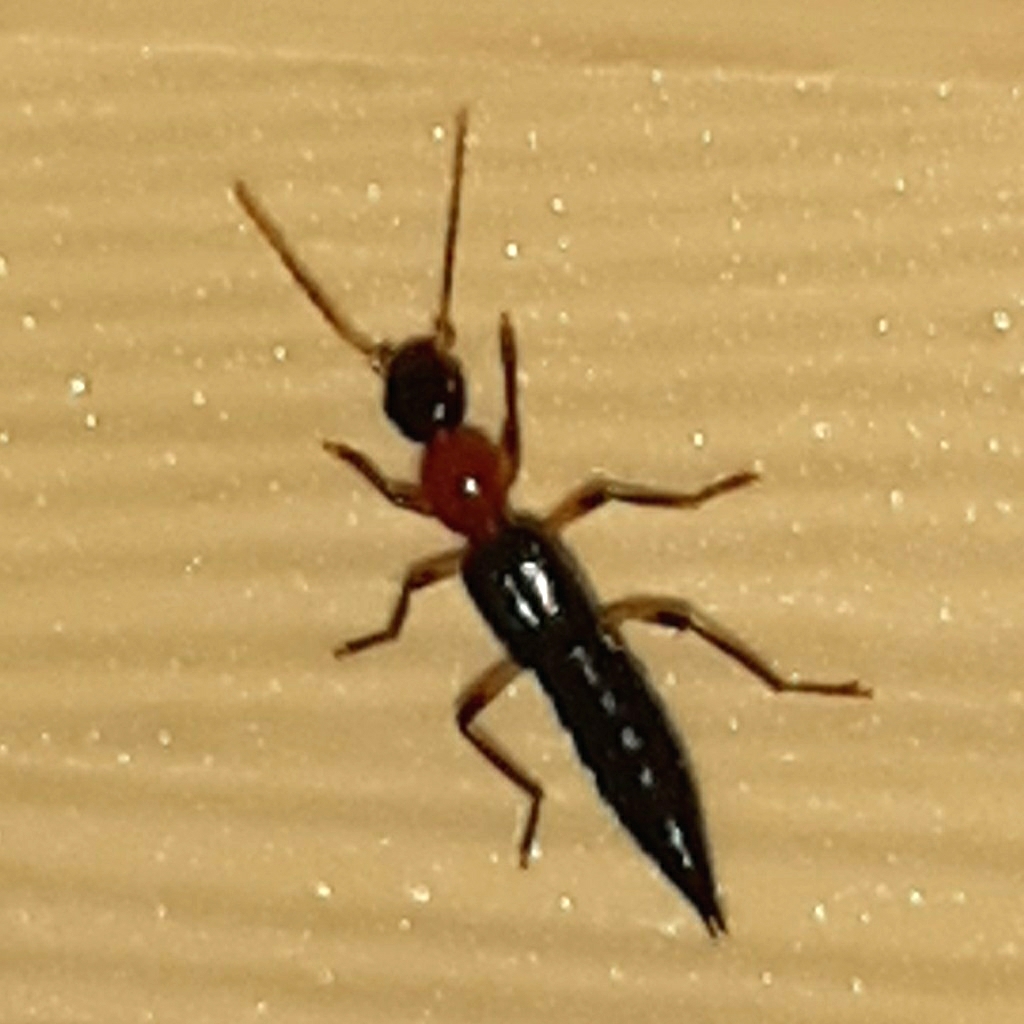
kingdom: Animalia
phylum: Arthropoda
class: Insecta
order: Coleoptera
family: Staphylinidae
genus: Paederus
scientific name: Paederus signaticornis
